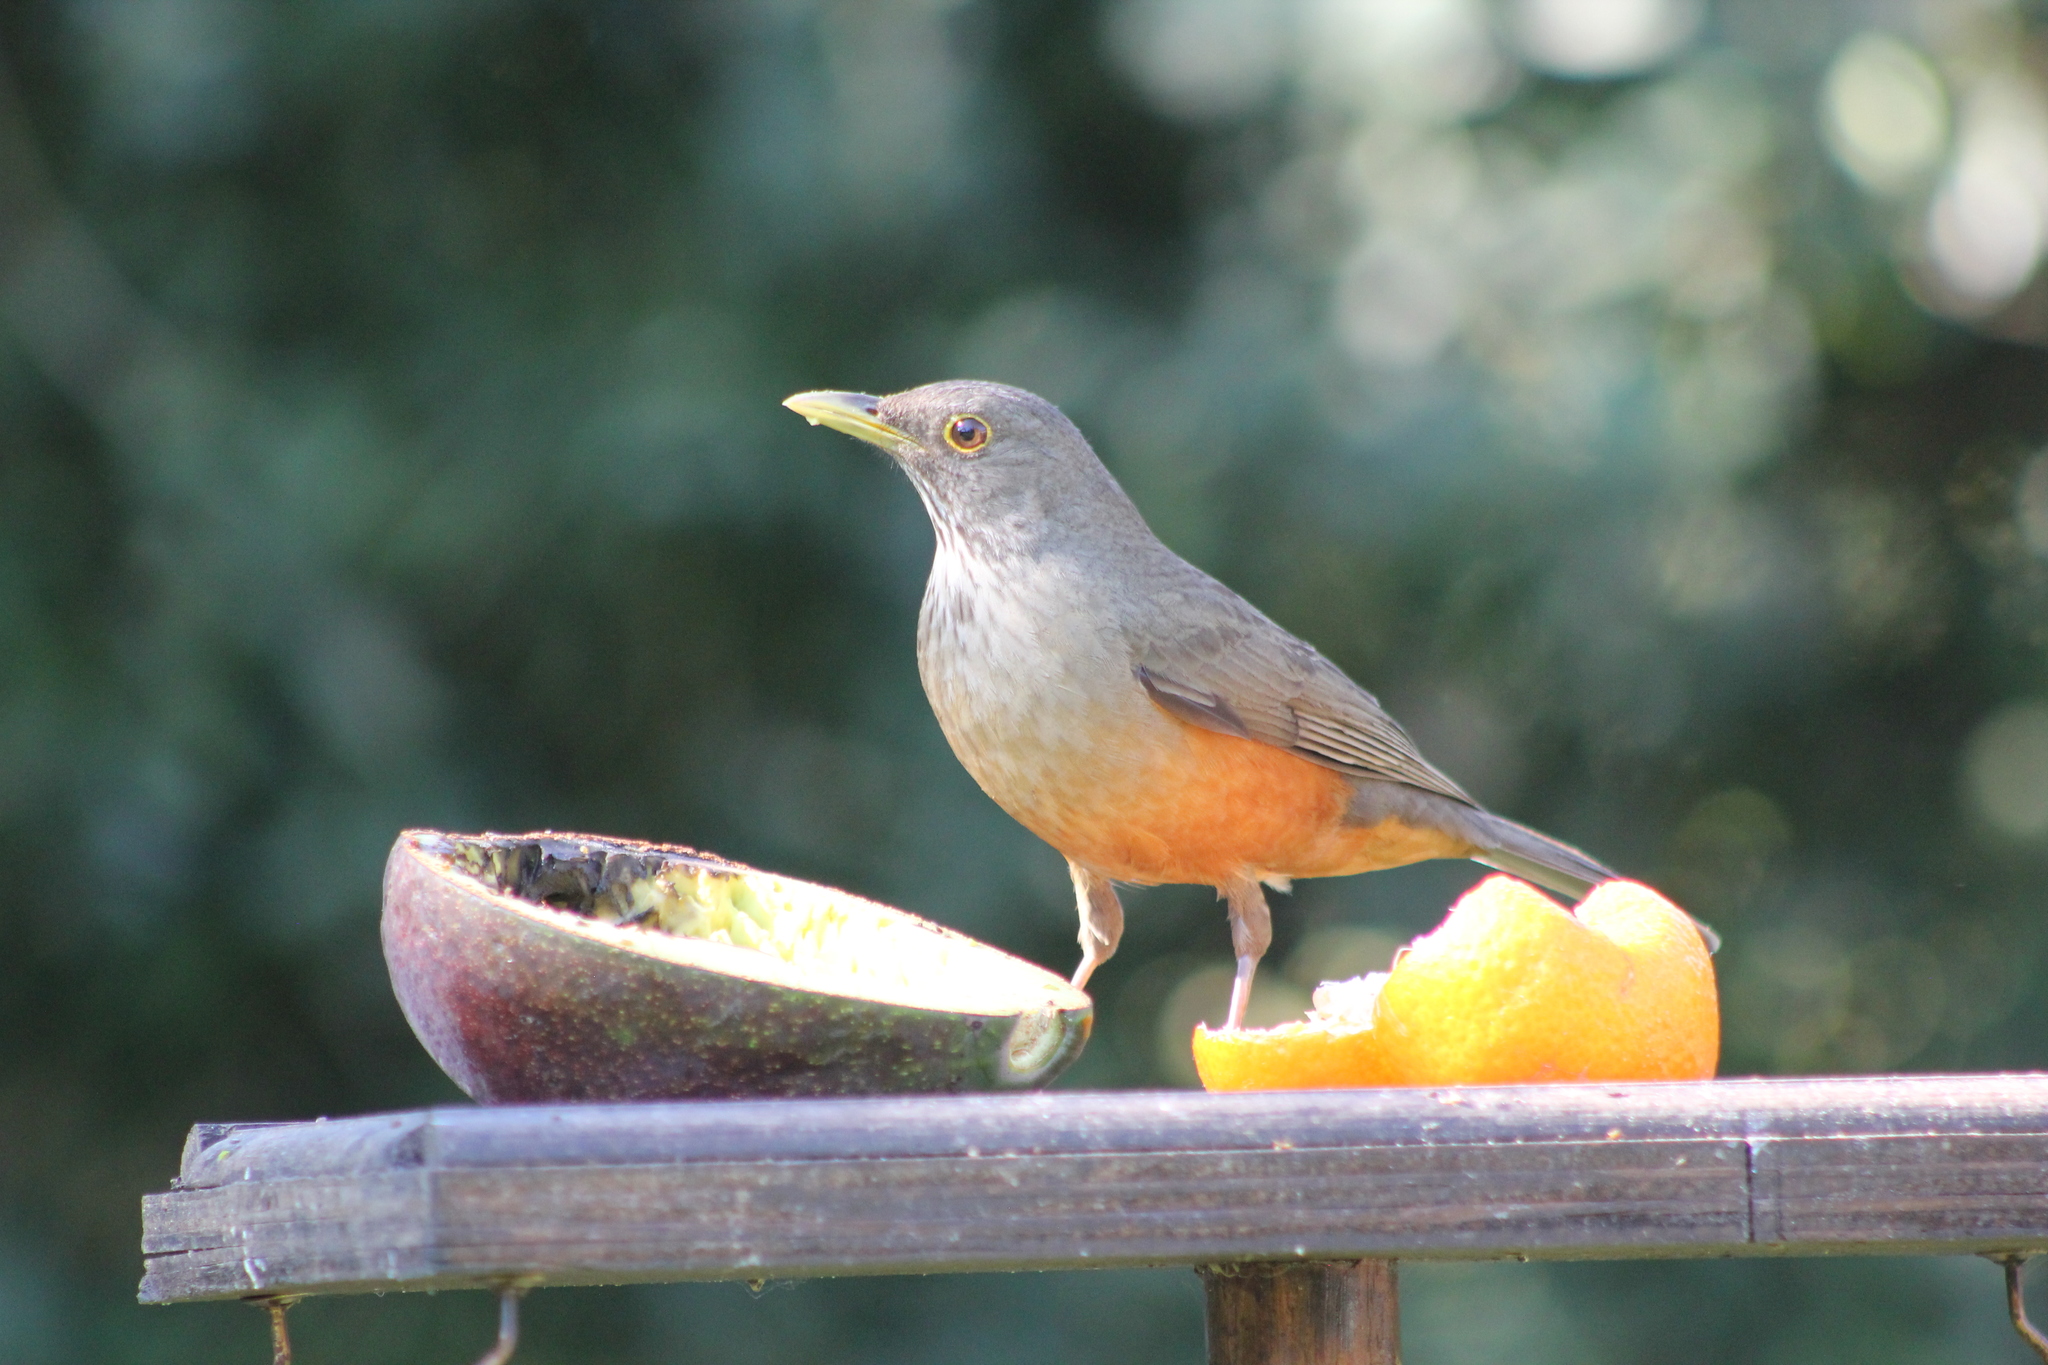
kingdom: Animalia
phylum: Chordata
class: Aves
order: Passeriformes
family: Turdidae
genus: Turdus
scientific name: Turdus rufiventris
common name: Rufous-bellied thrush
